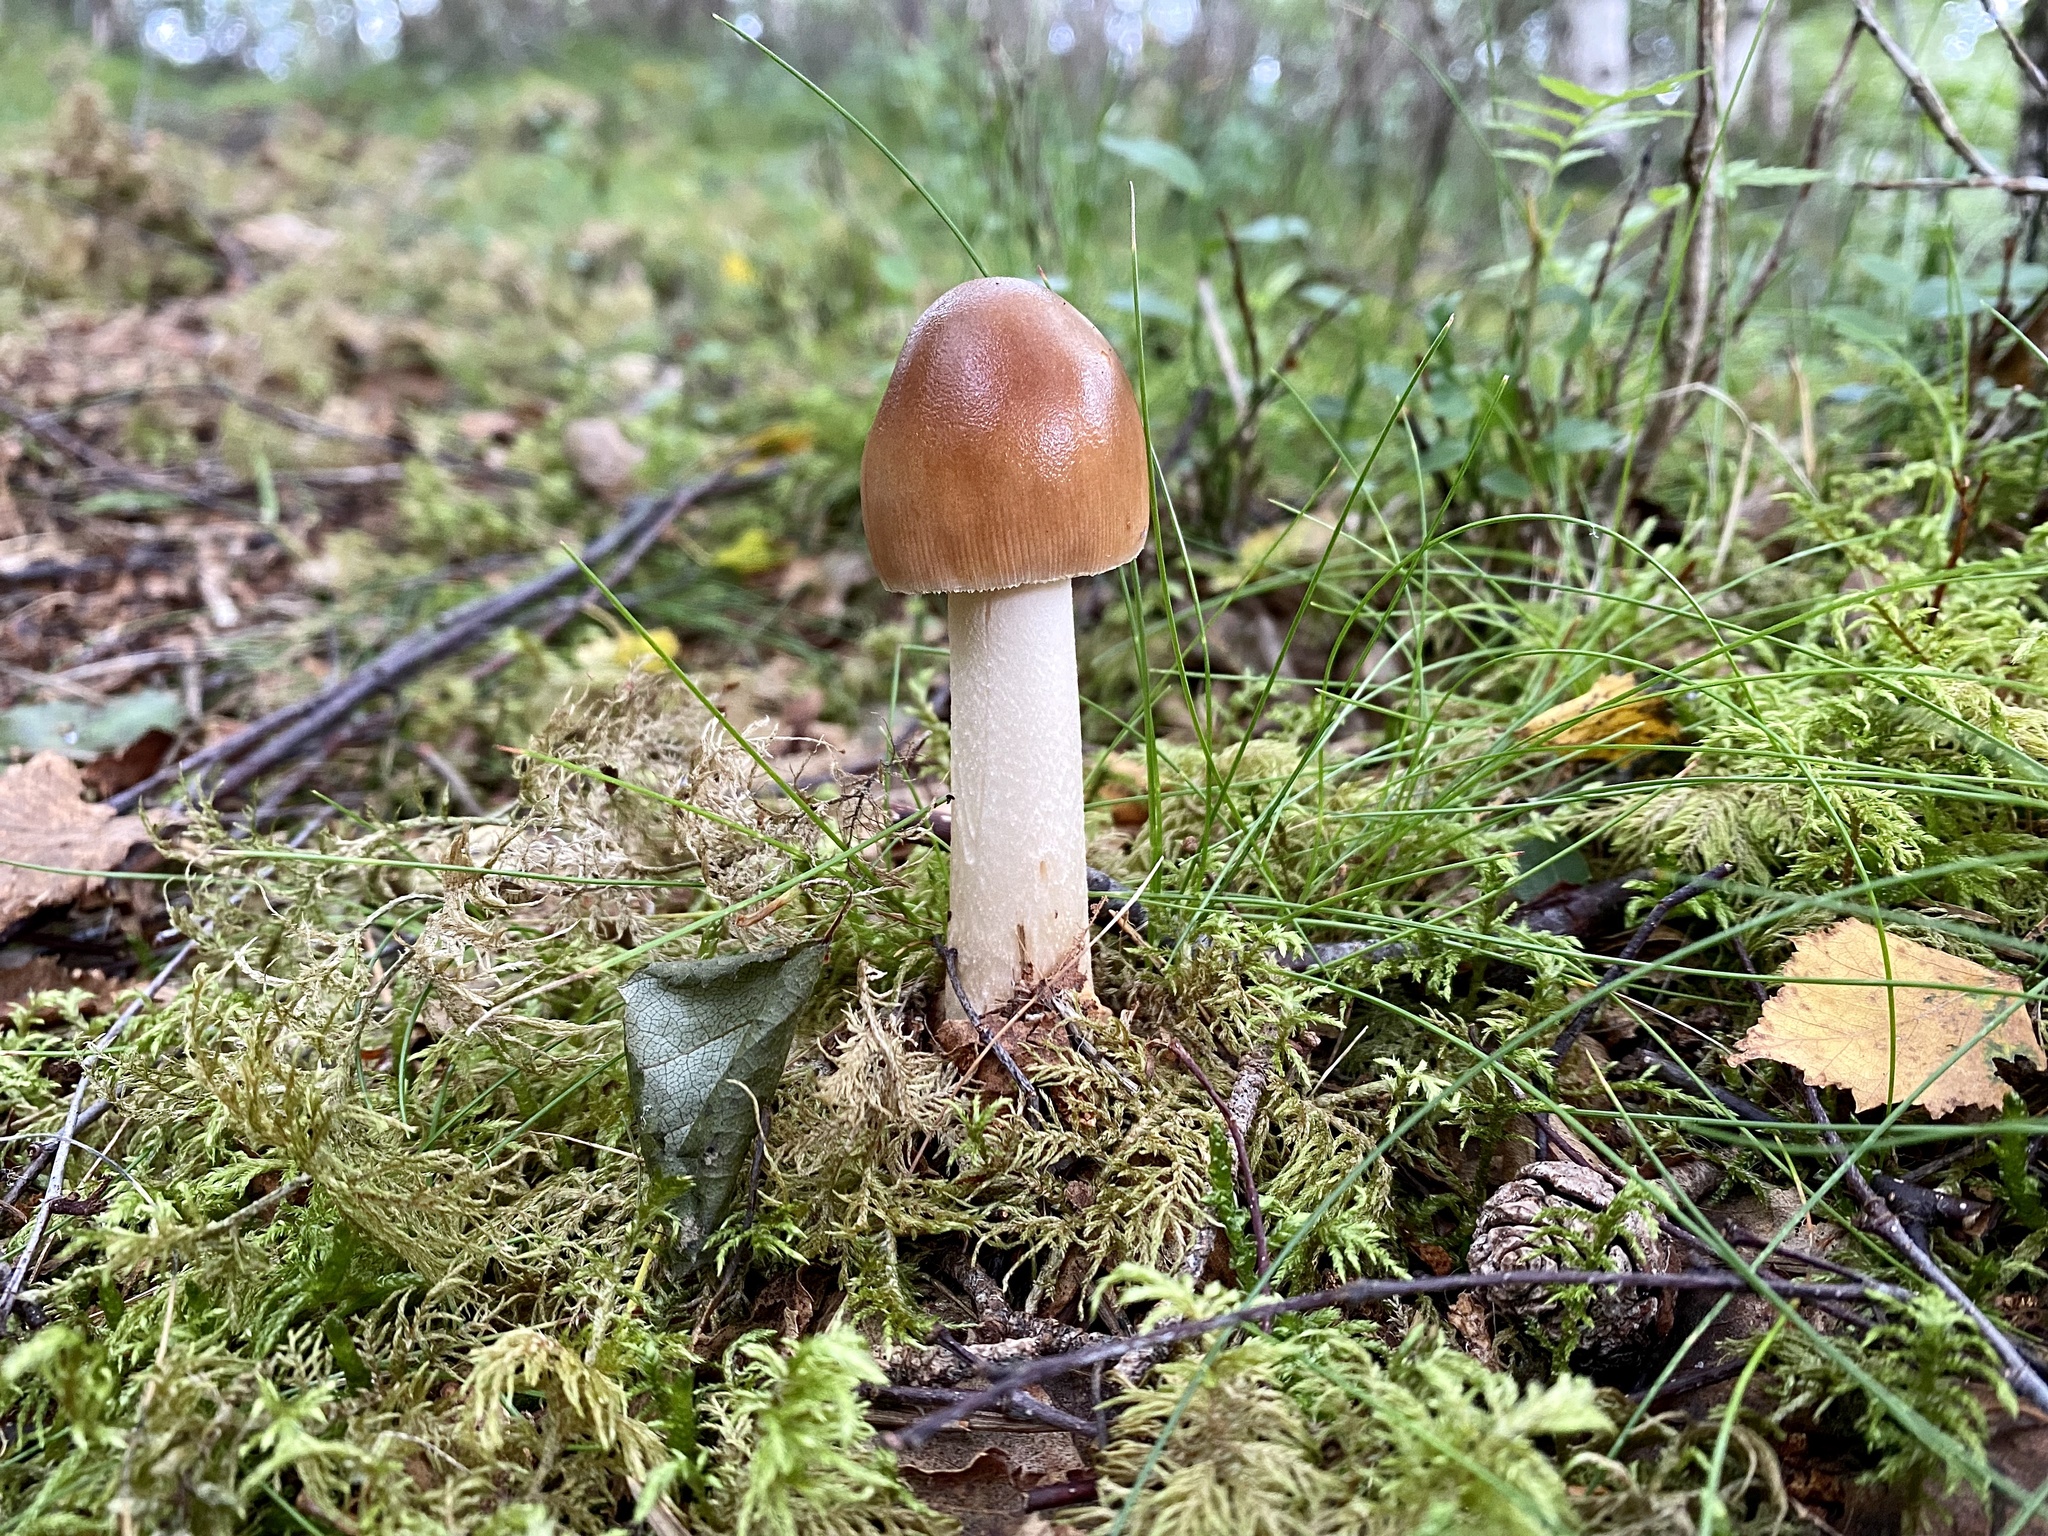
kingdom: Fungi
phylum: Basidiomycota
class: Agaricomycetes
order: Agaricales
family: Amanitaceae
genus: Amanita
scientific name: Amanita fulva
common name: Tawny grisette
